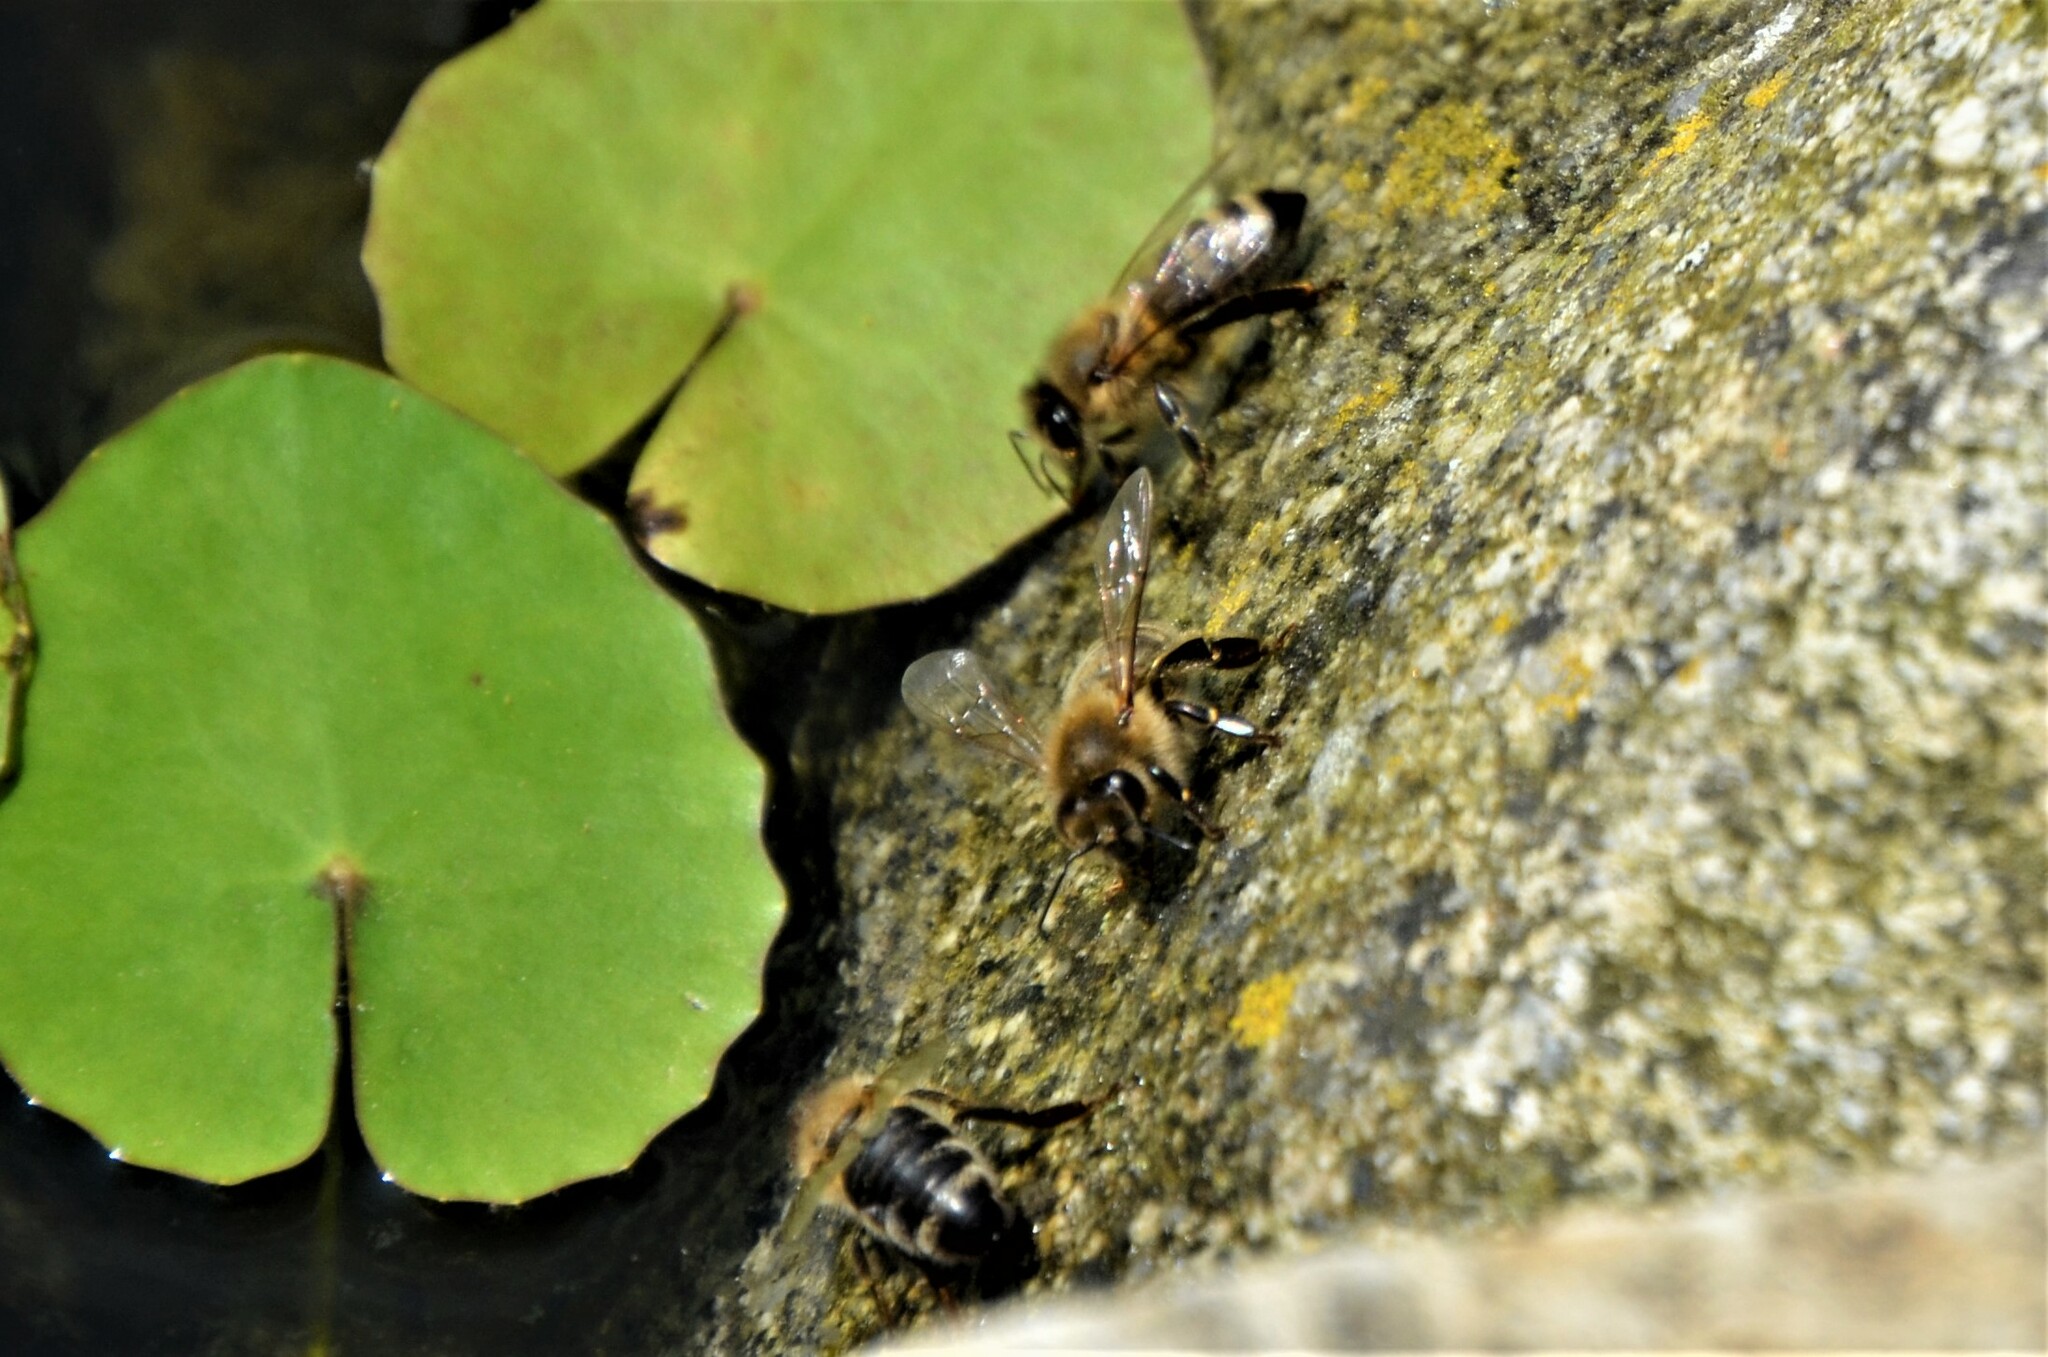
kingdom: Animalia
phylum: Arthropoda
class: Insecta
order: Hymenoptera
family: Apidae
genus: Apis
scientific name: Apis mellifera
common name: Honey bee
